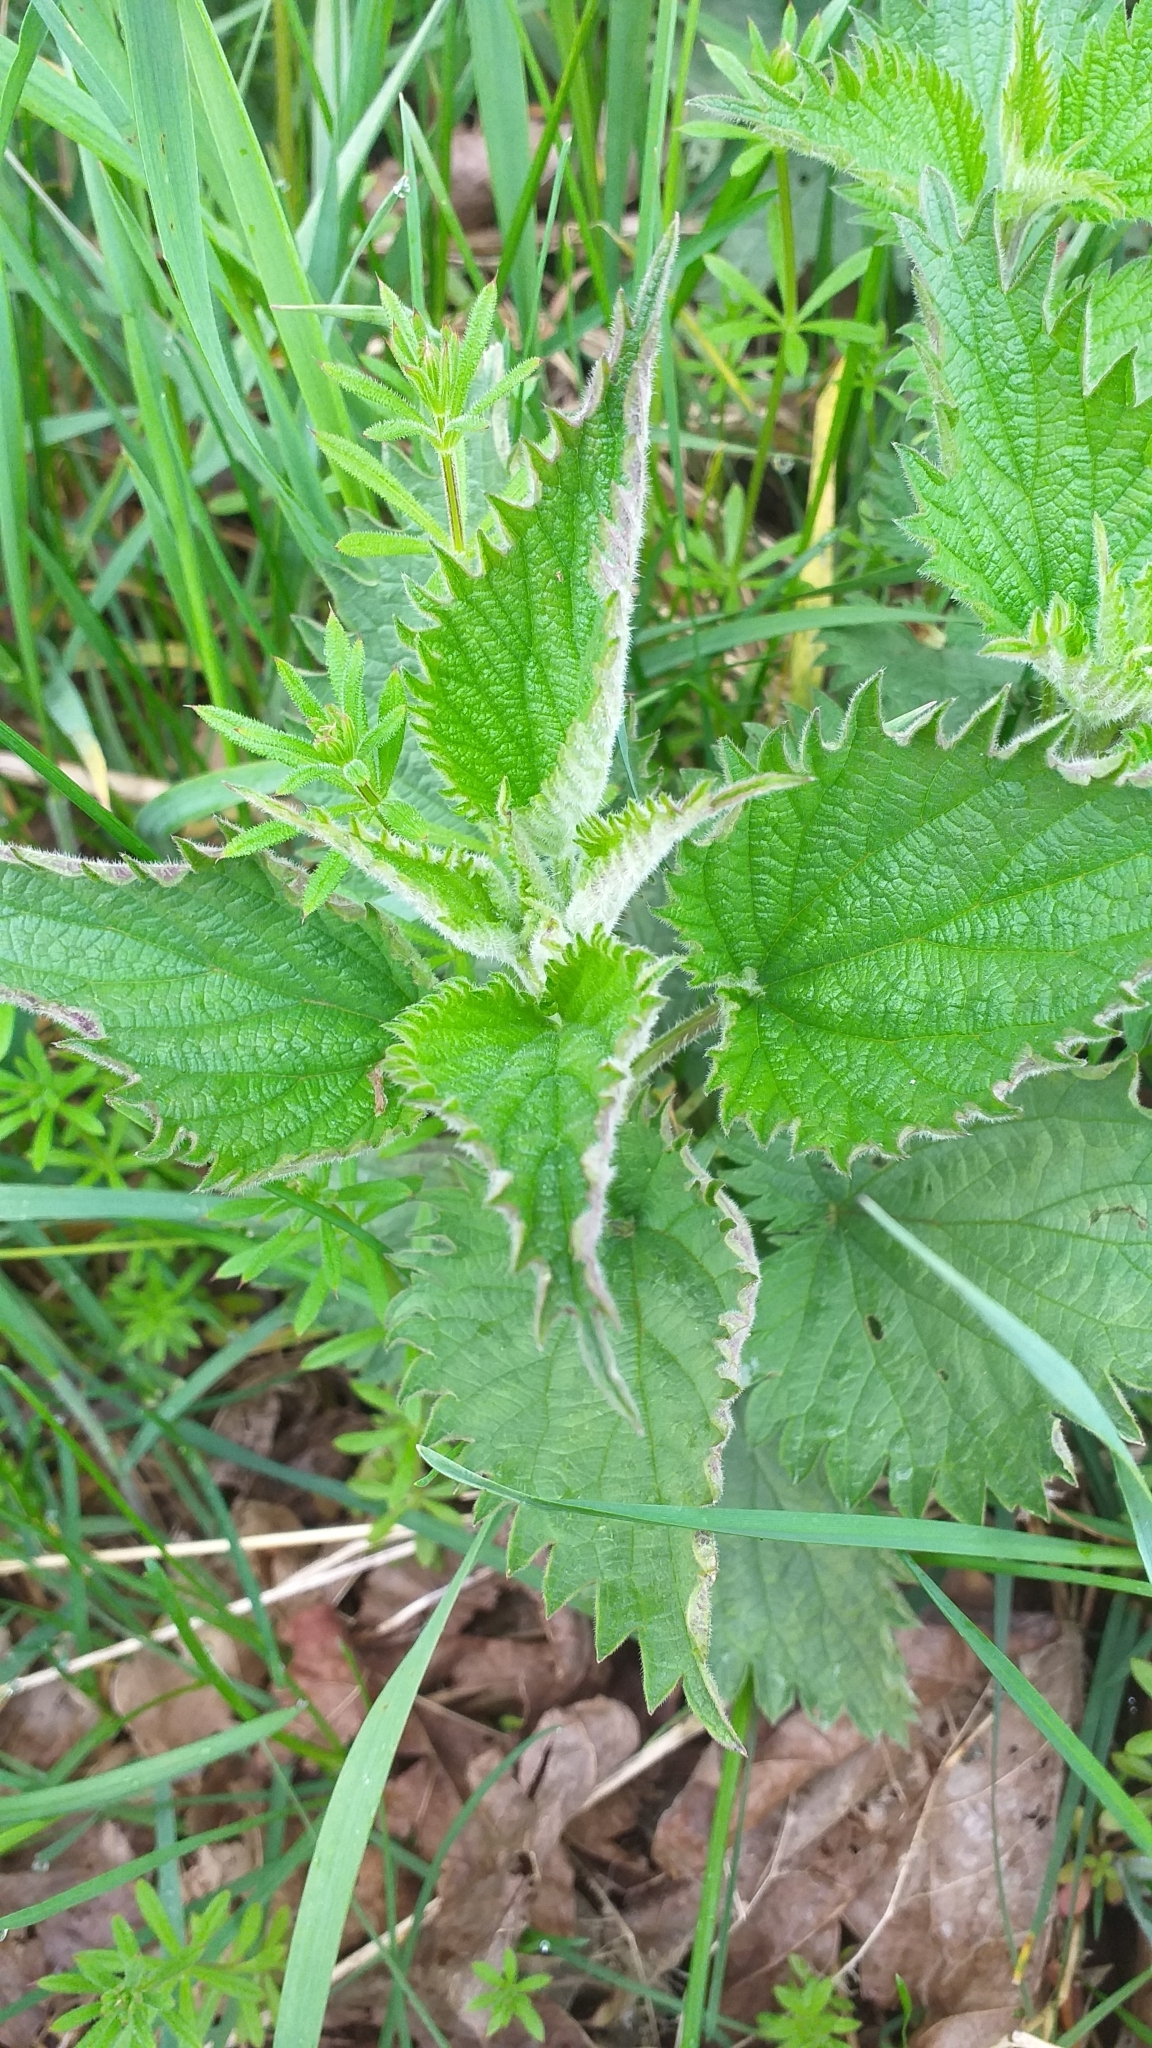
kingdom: Plantae
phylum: Tracheophyta
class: Magnoliopsida
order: Rosales
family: Urticaceae
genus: Urtica
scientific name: Urtica dioica
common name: Common nettle
